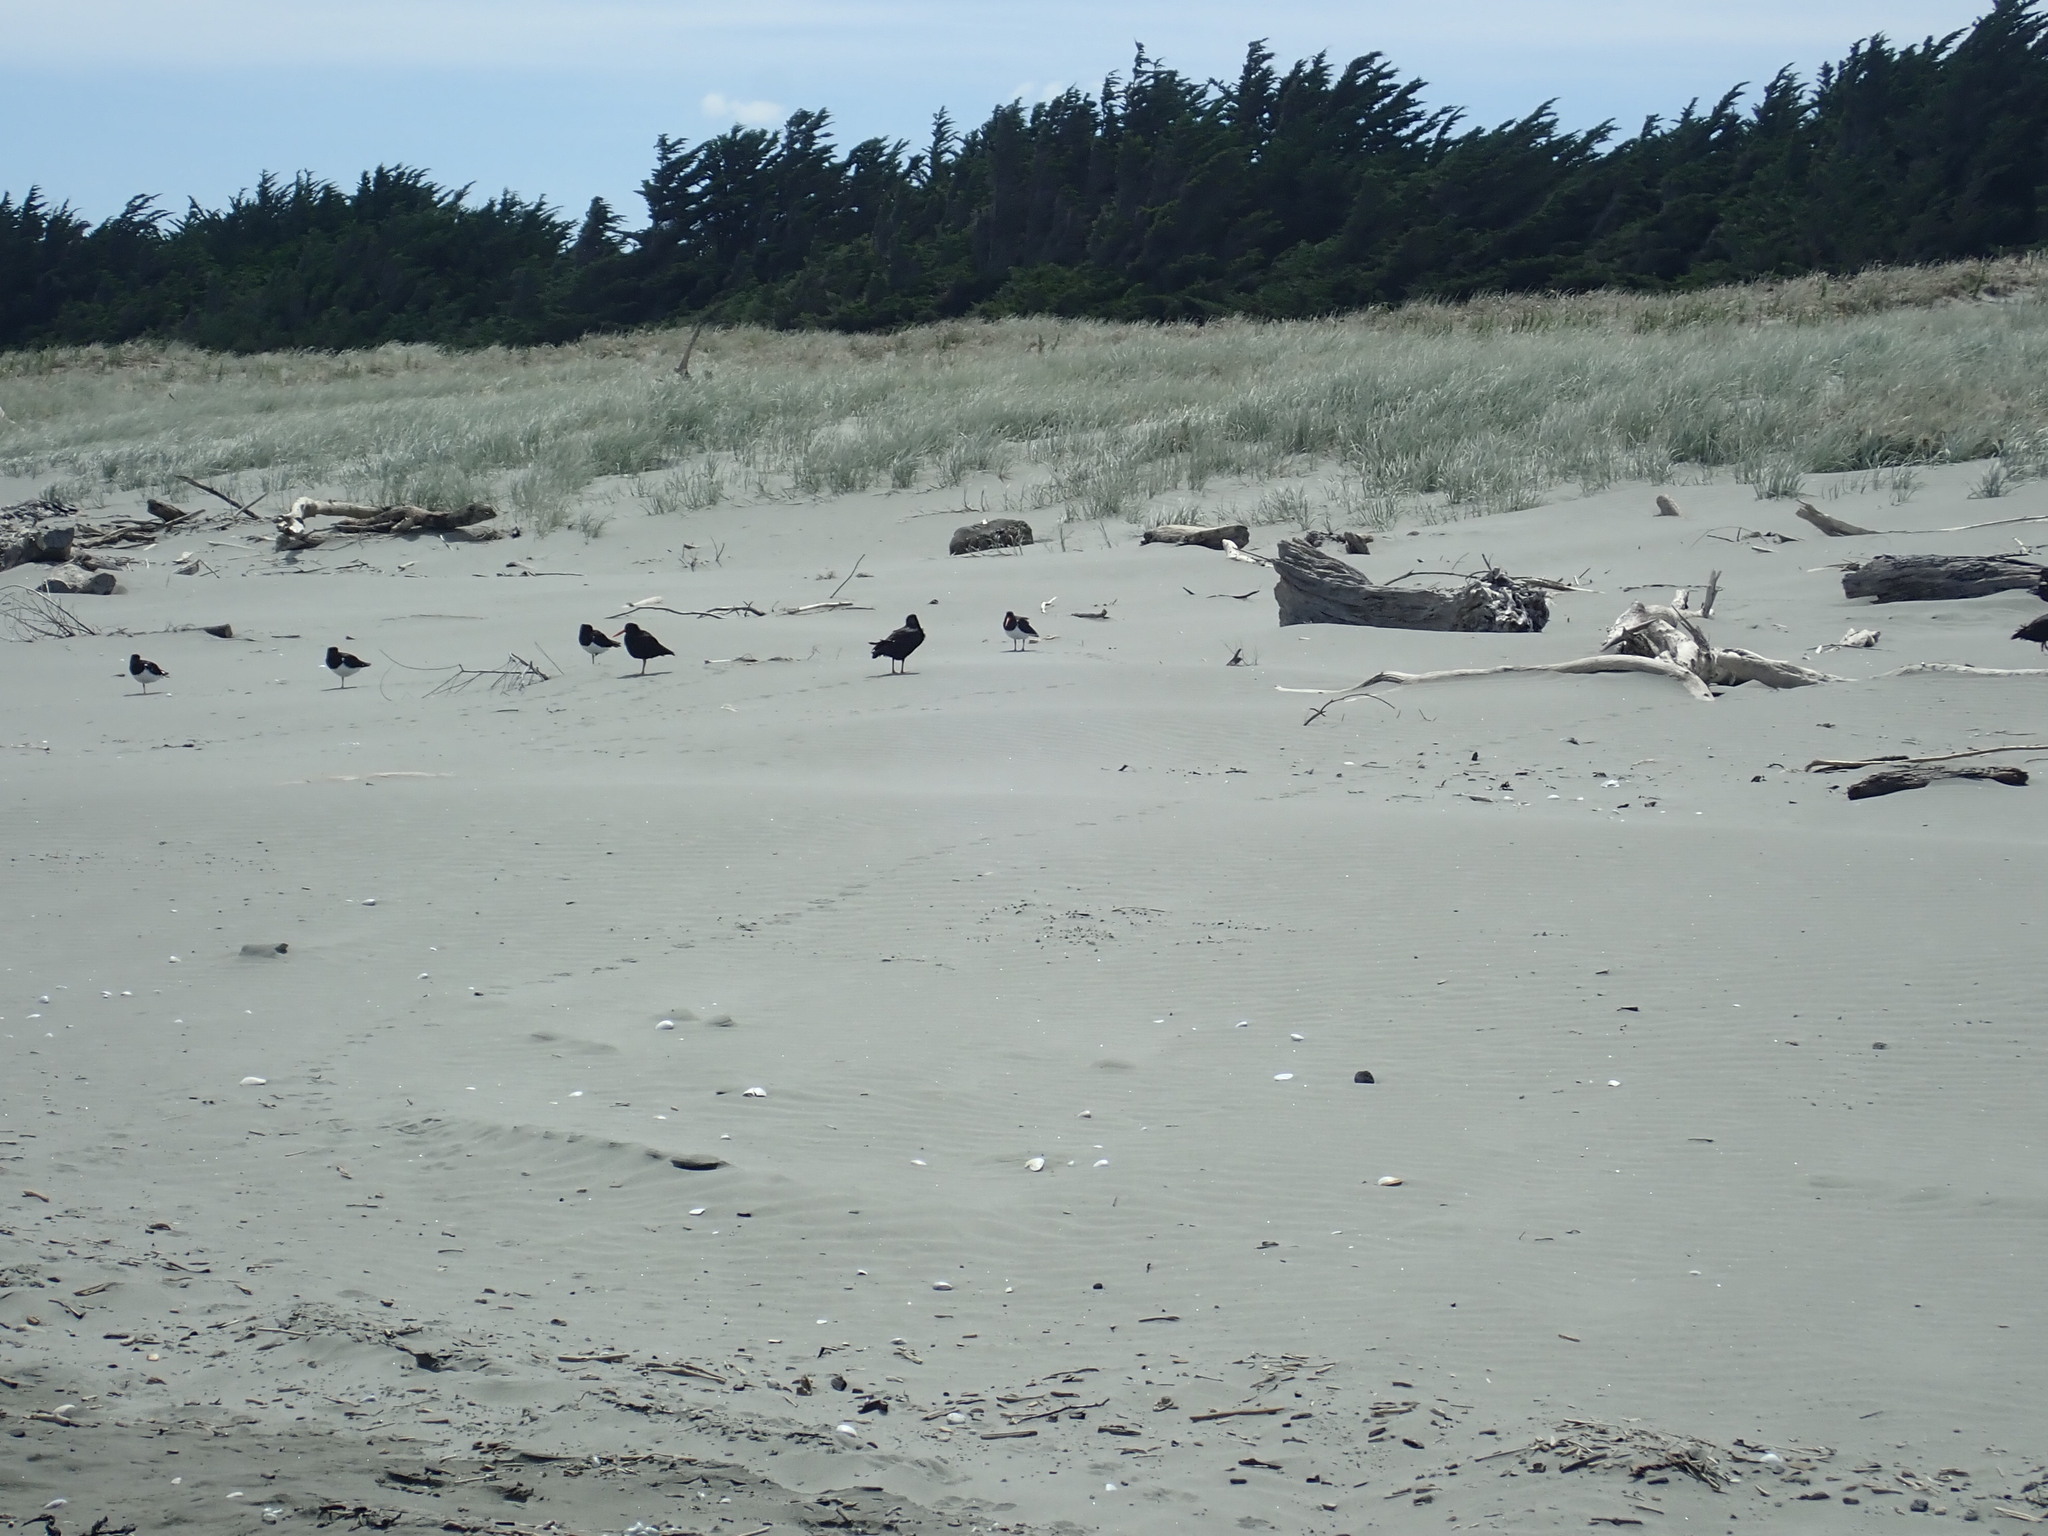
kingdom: Animalia
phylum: Chordata
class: Aves
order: Charadriiformes
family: Haematopodidae
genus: Haematopus
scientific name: Haematopus finschi
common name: South island oystercatcher
